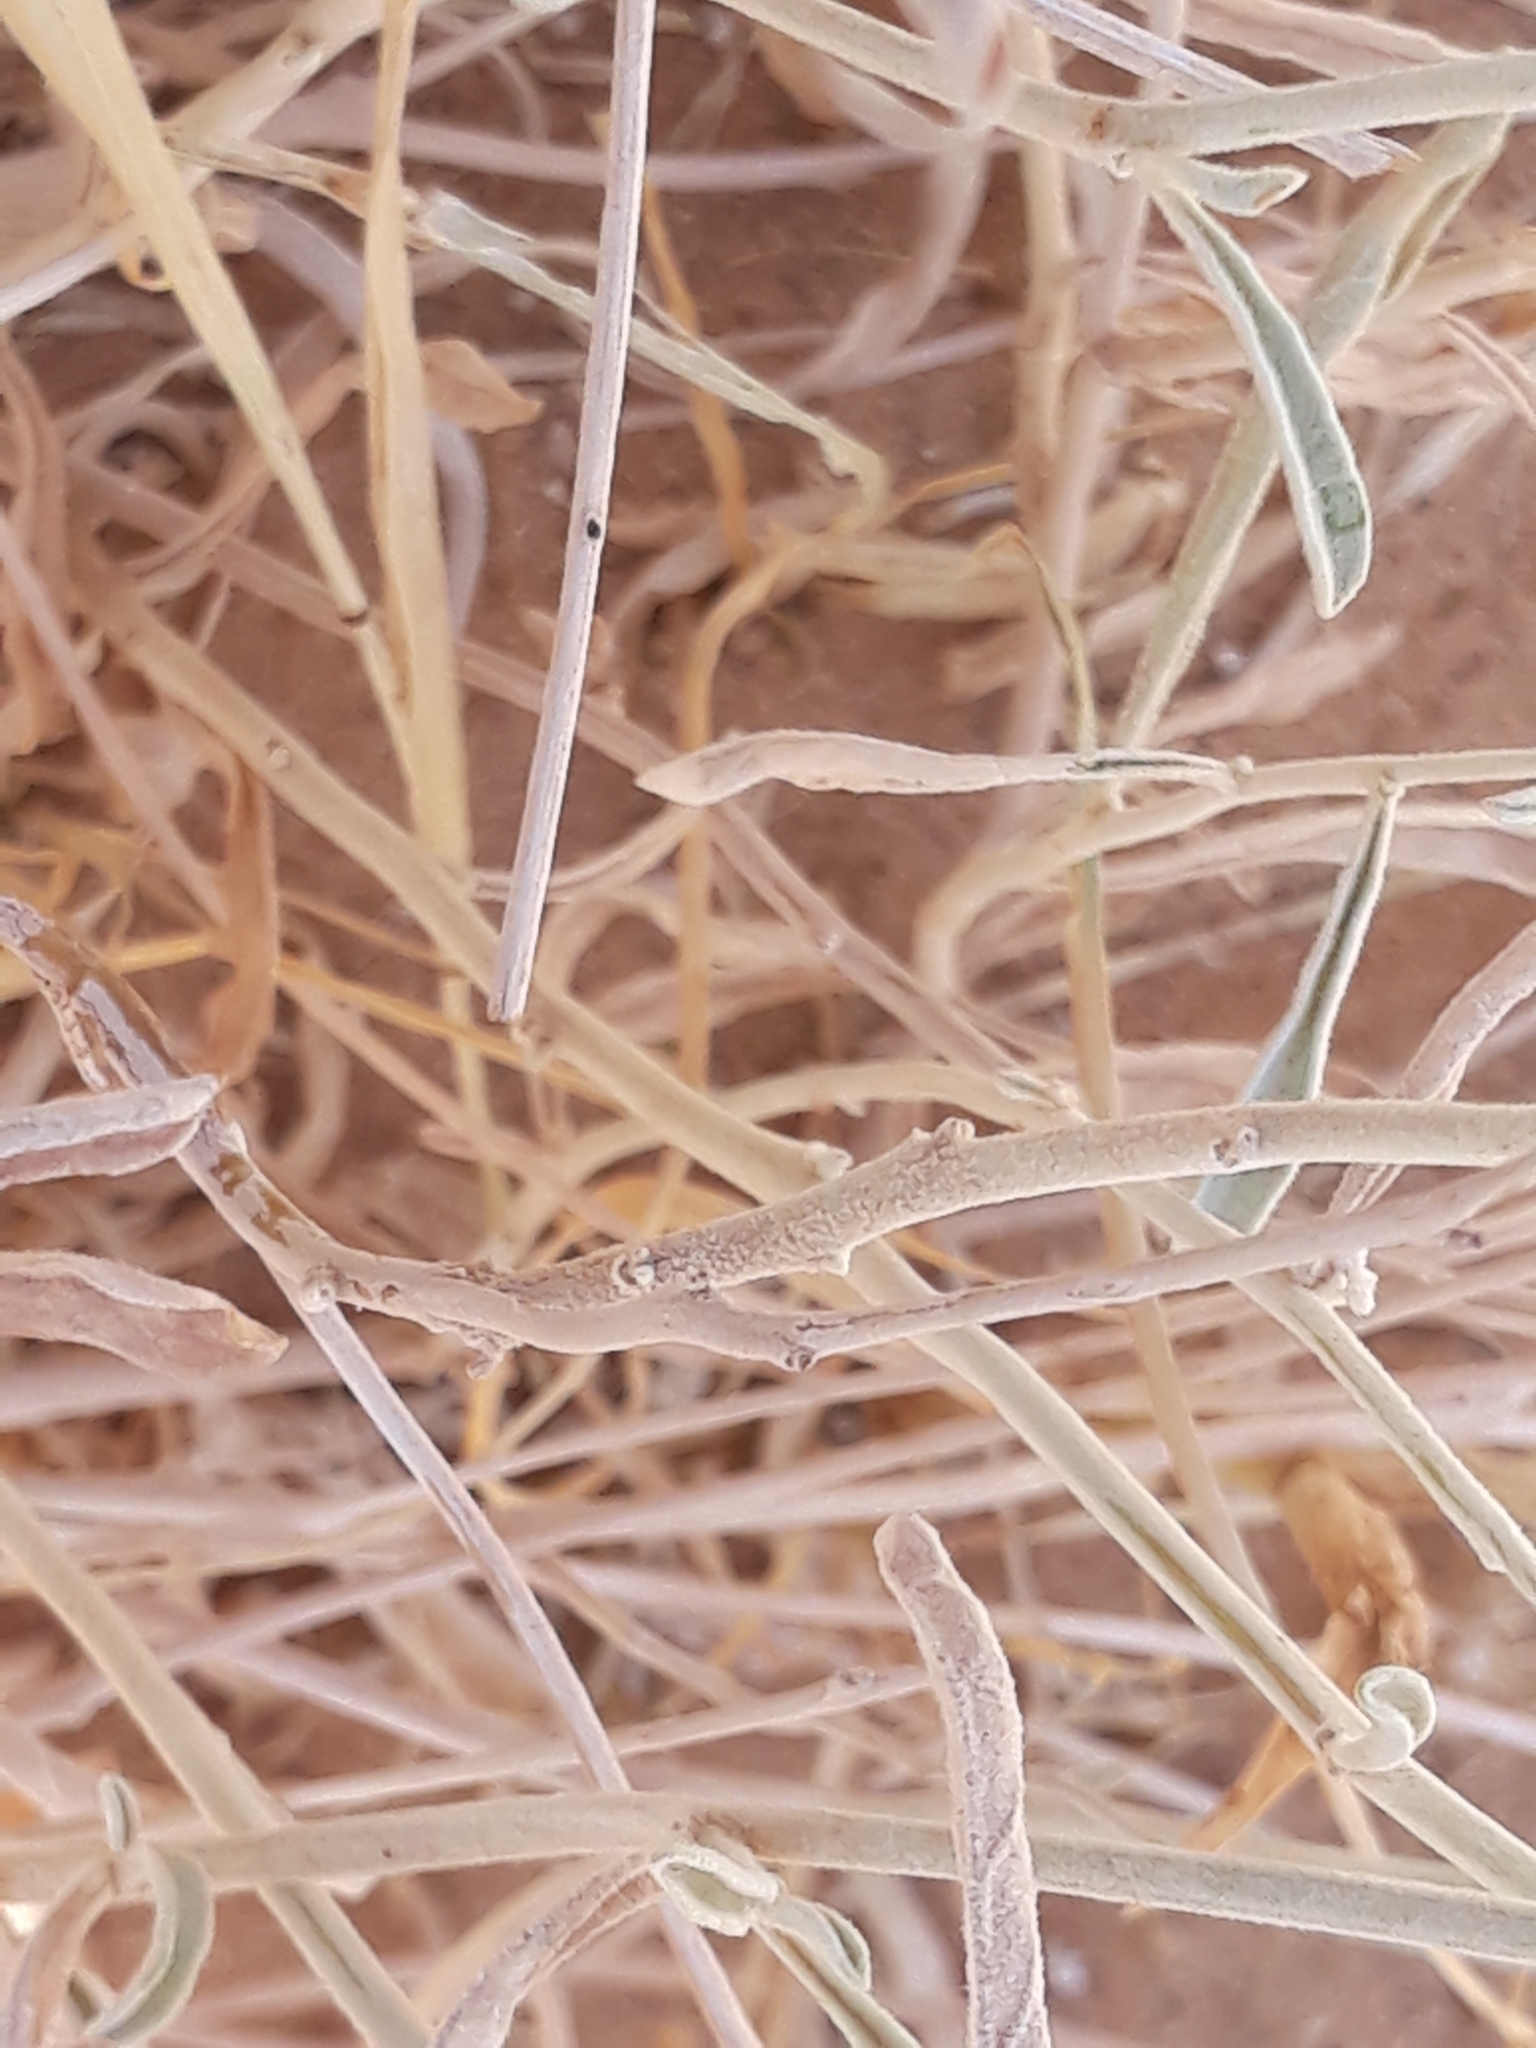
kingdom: Plantae
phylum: Tracheophyta
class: Magnoliopsida
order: Caryophyllales
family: Amaranthaceae
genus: Aerva
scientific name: Aerva javanica
